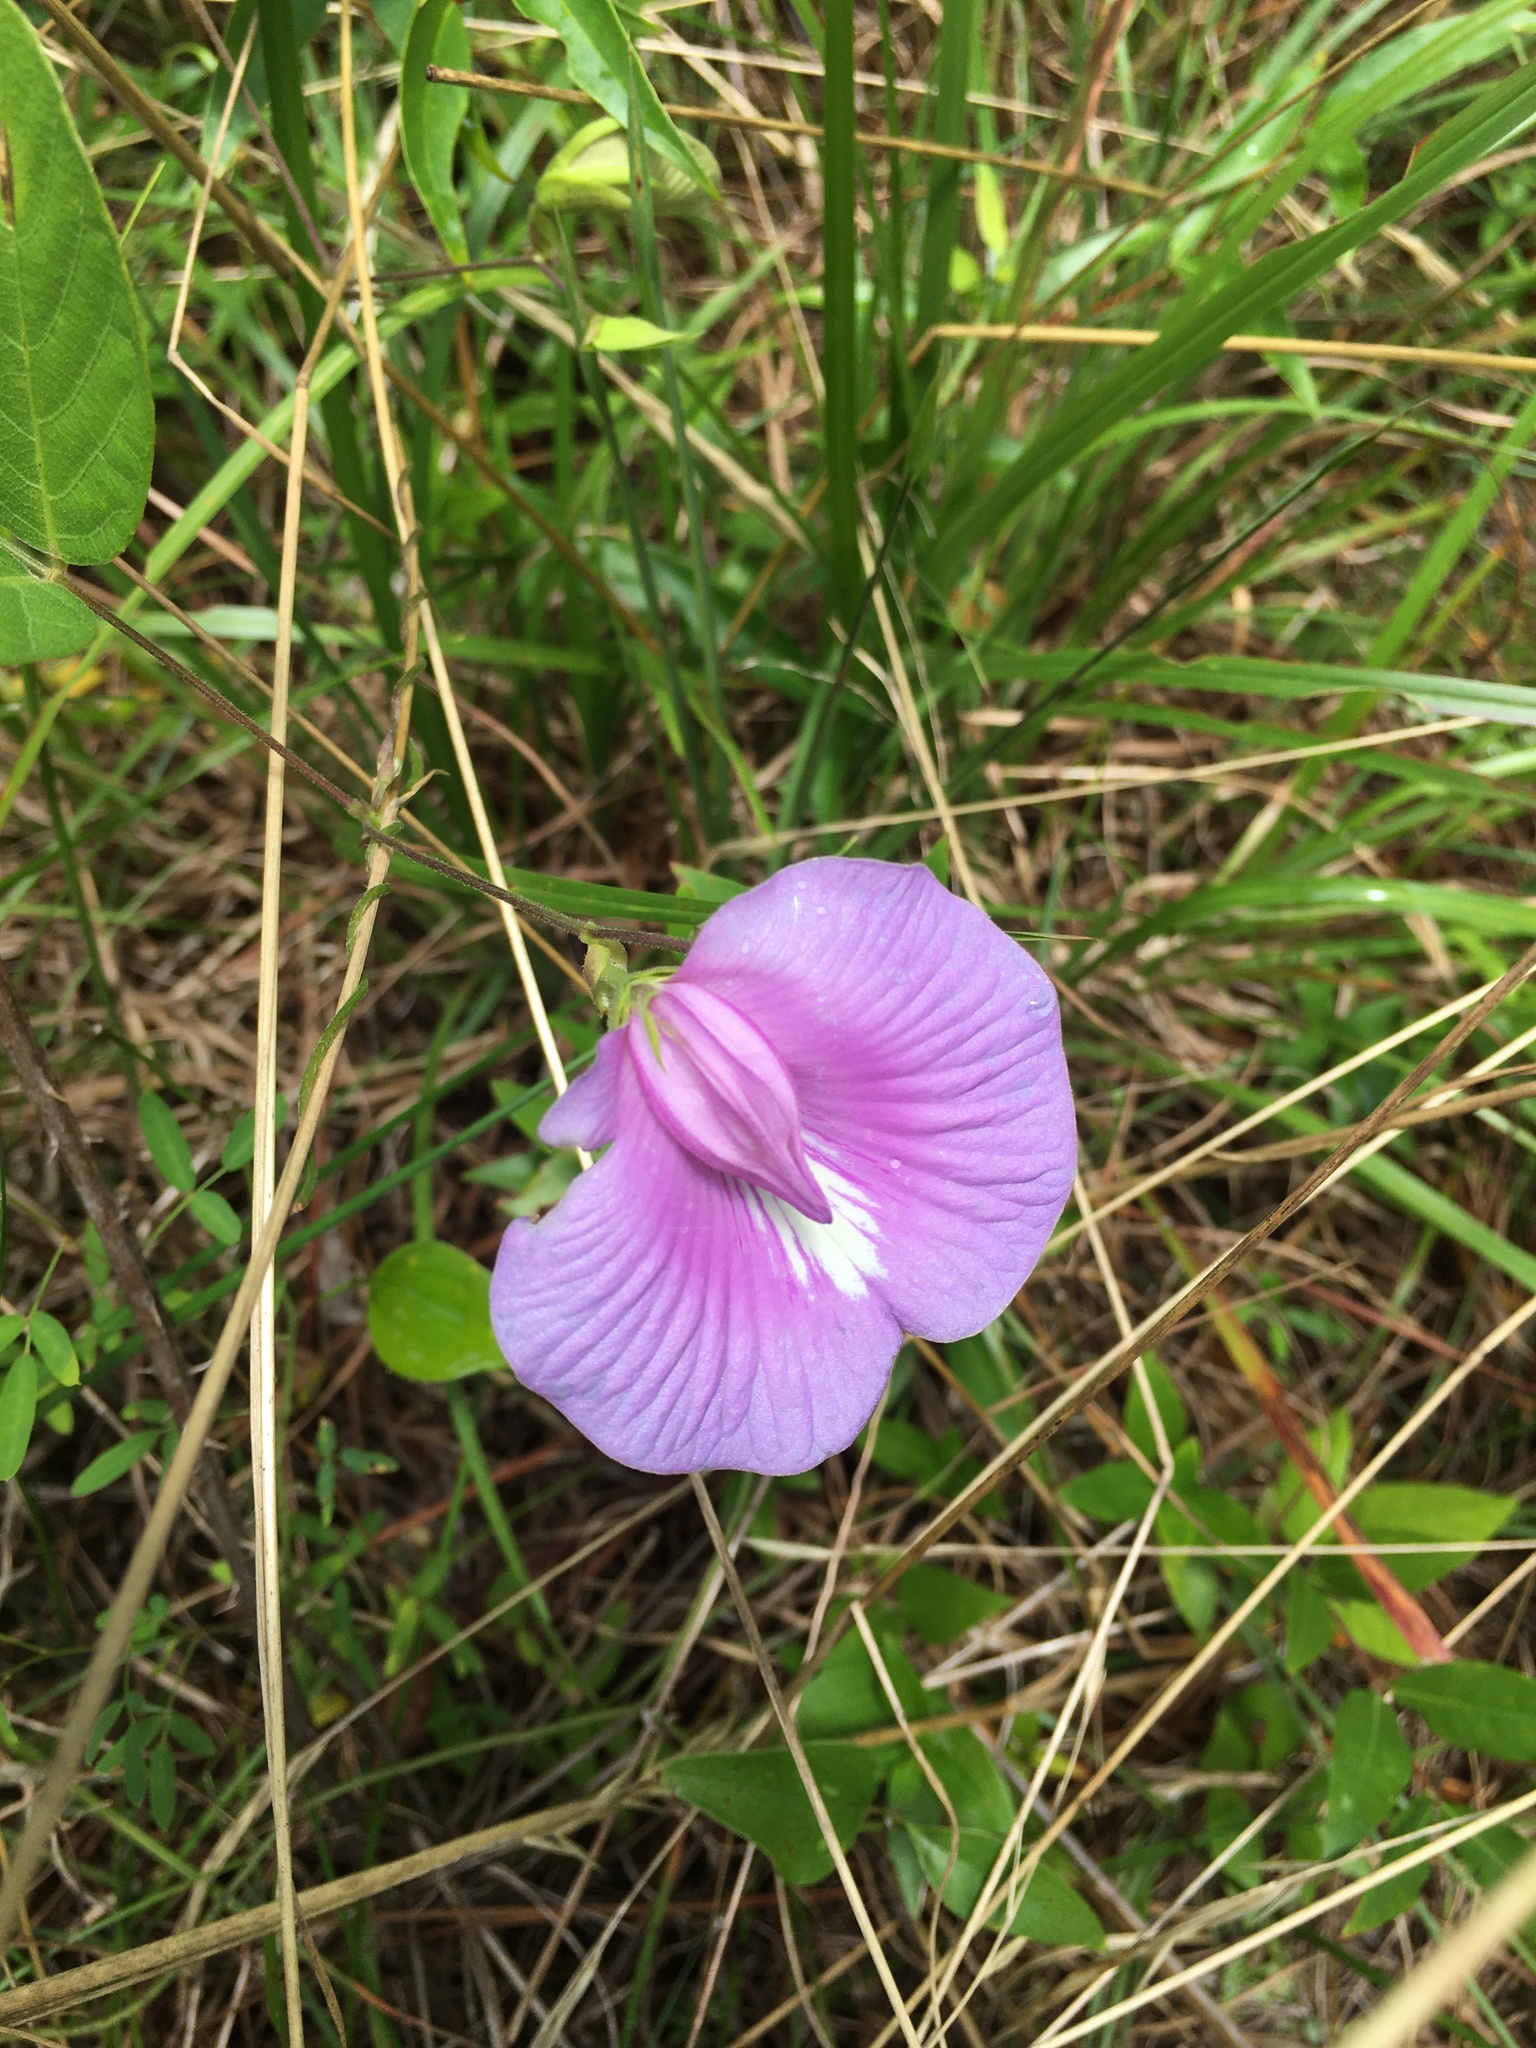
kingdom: Plantae
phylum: Tracheophyta
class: Magnoliopsida
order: Fabales
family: Fabaceae
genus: Centrosema
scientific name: Centrosema virginianum
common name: Butterfly-pea
